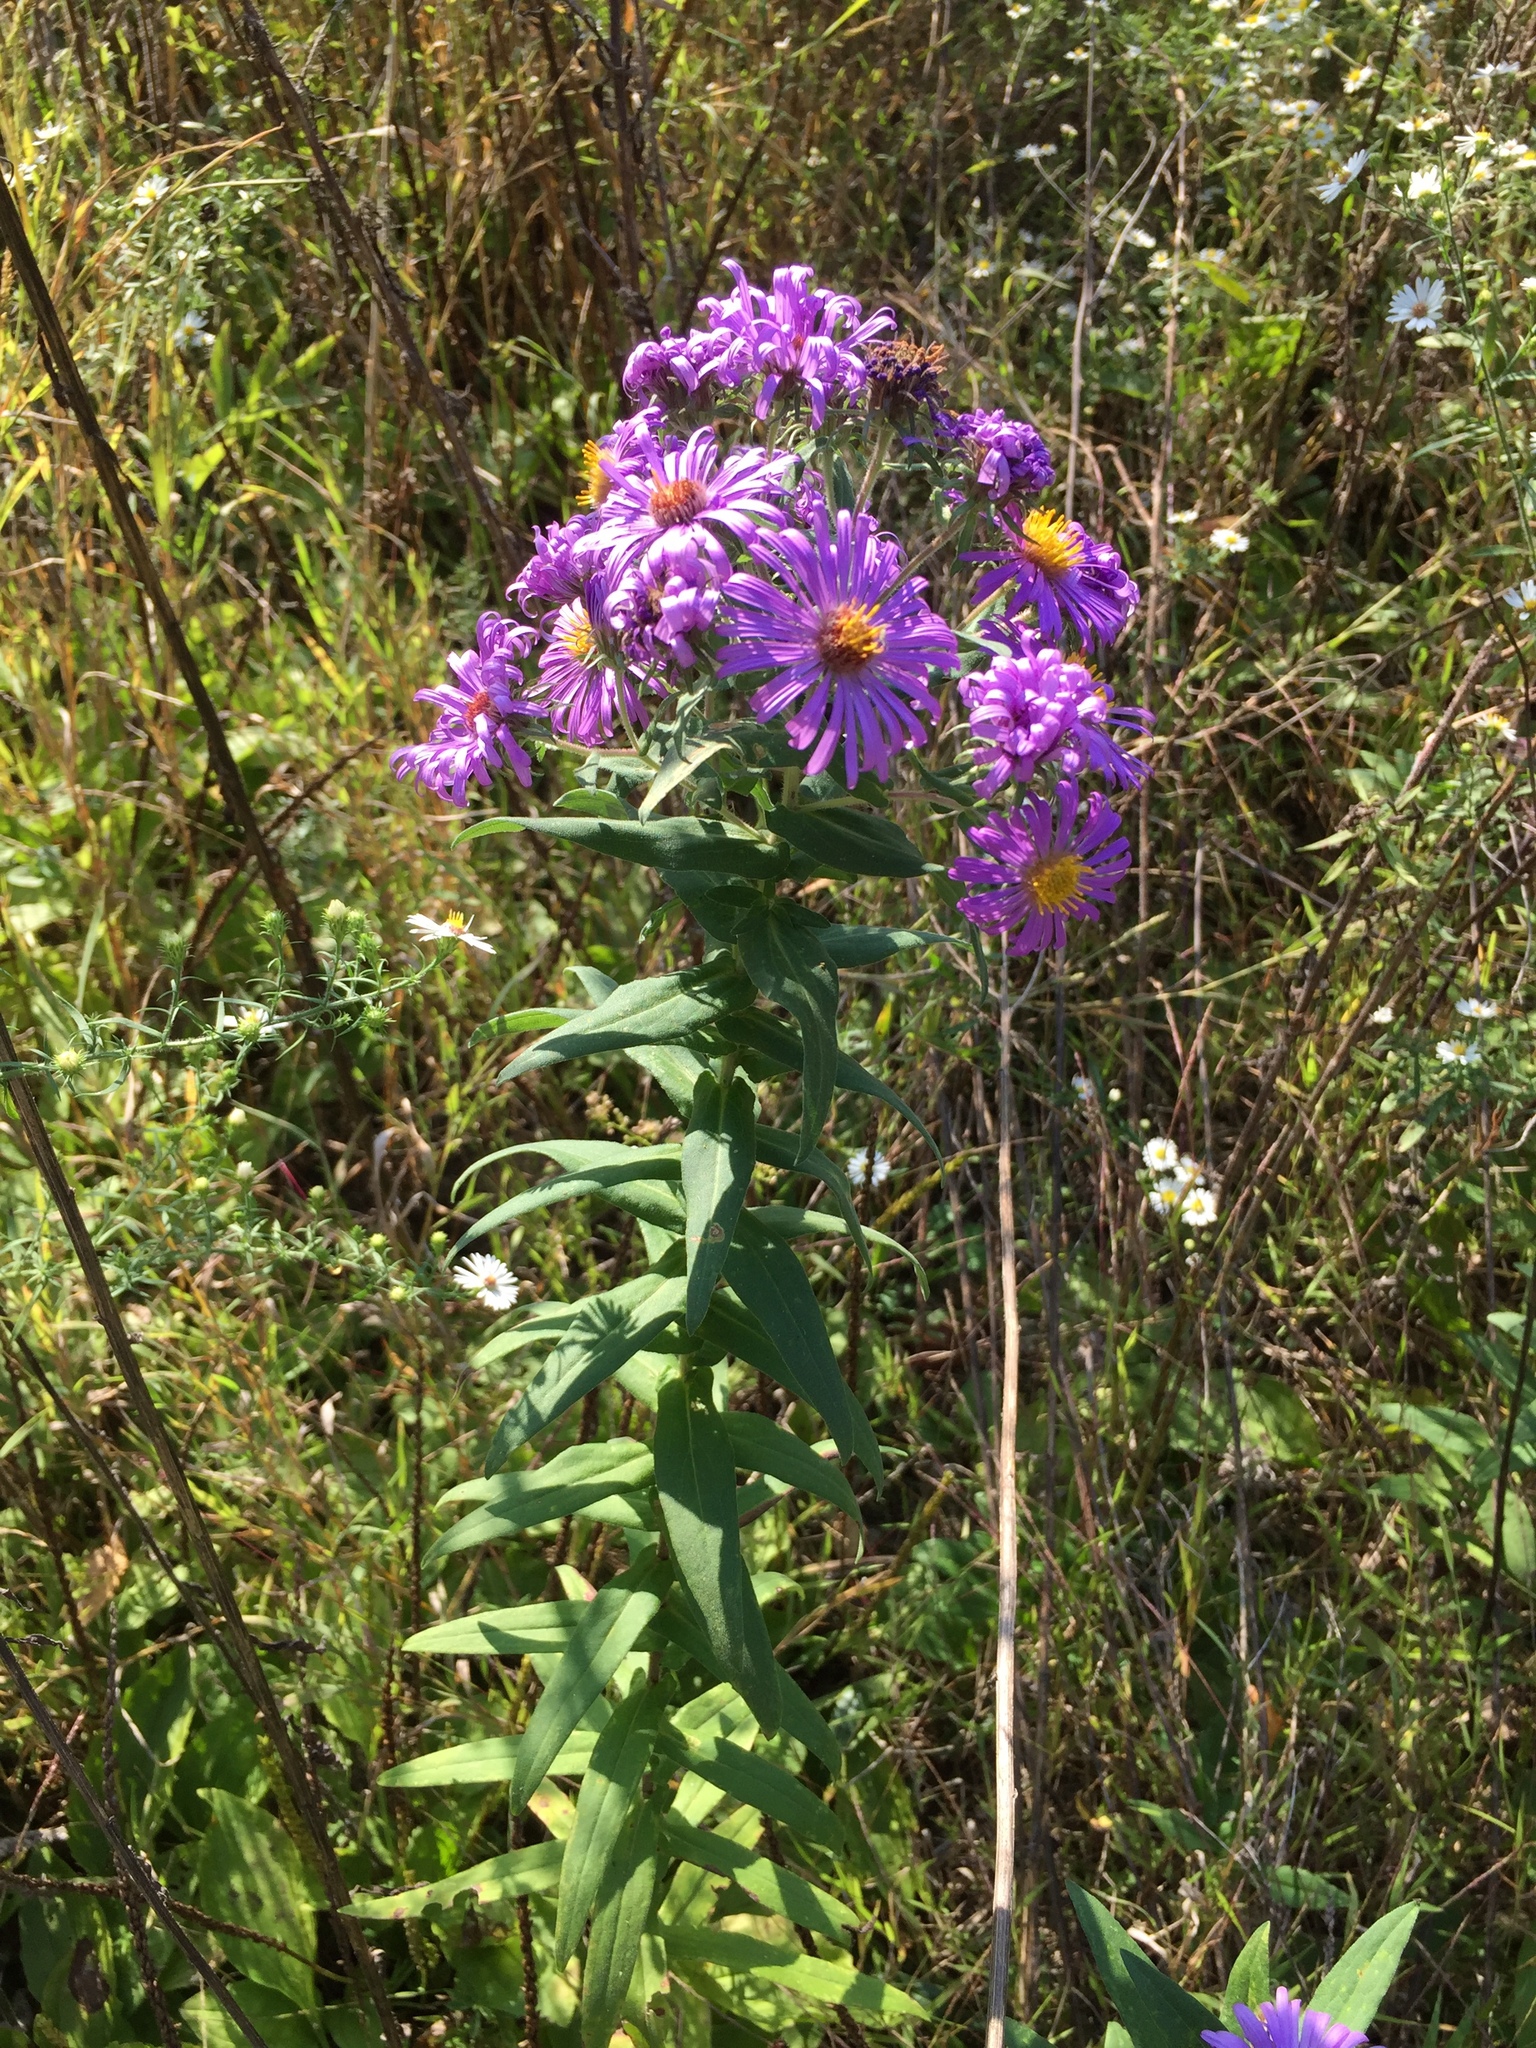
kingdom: Plantae
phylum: Tracheophyta
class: Magnoliopsida
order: Asterales
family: Asteraceae
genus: Symphyotrichum
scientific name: Symphyotrichum novae-angliae
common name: Michaelmas daisy
